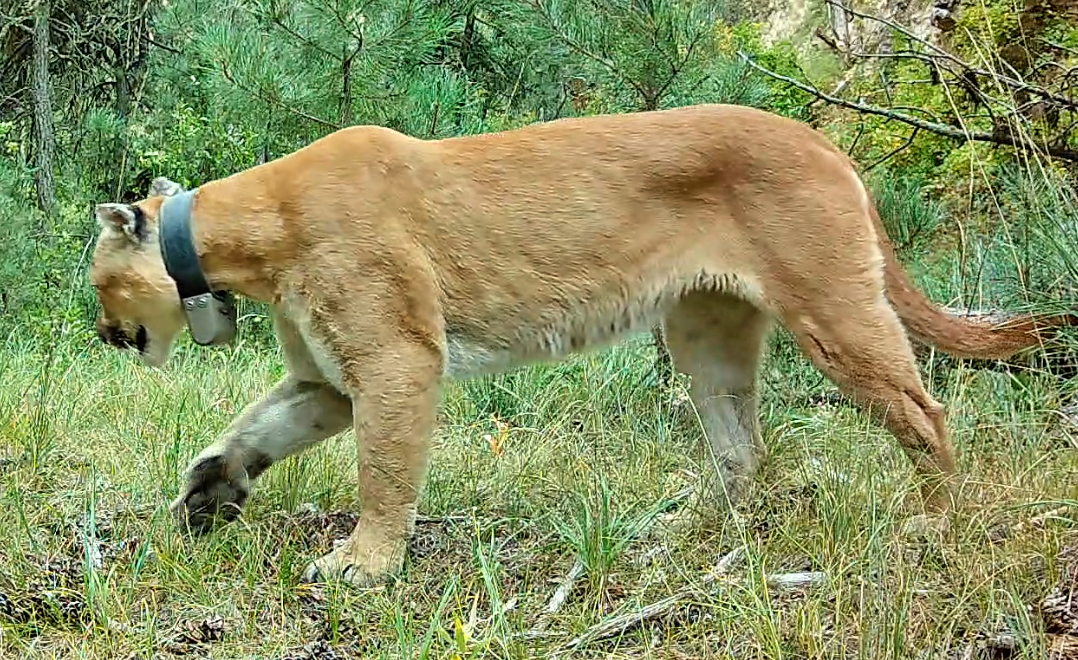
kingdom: Animalia
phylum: Chordata
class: Mammalia
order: Carnivora
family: Felidae
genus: Puma
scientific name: Puma concolor
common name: Puma
